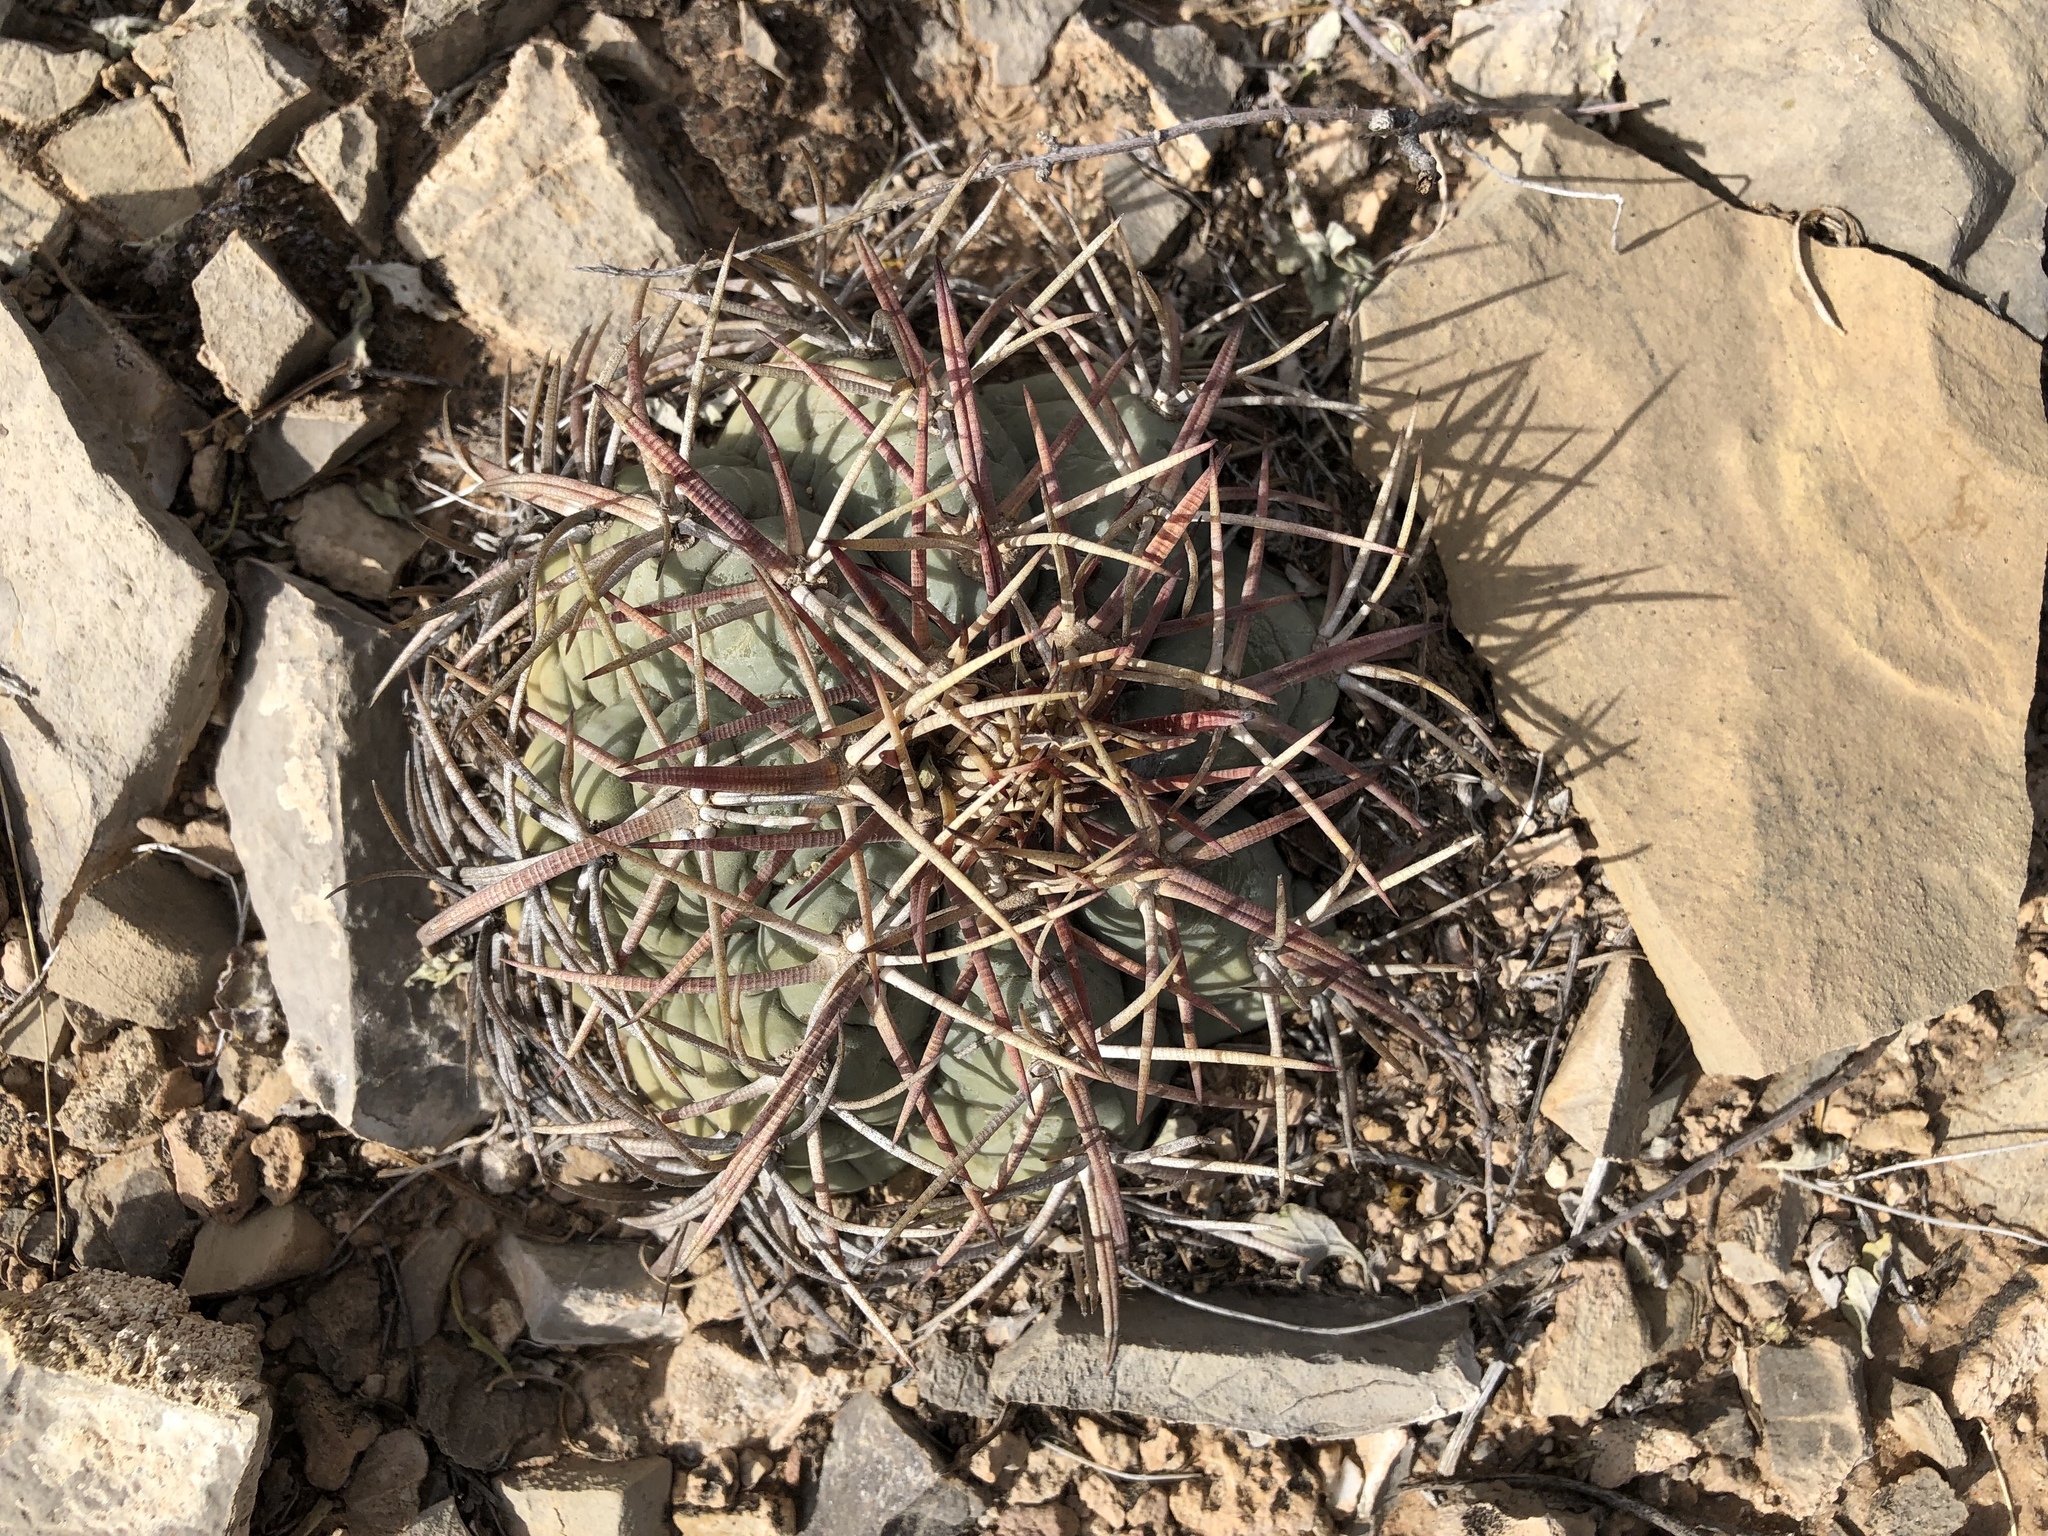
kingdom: Plantae
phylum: Tracheophyta
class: Magnoliopsida
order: Caryophyllales
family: Cactaceae
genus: Echinocactus
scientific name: Echinocactus horizonthalonius
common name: Devilshead
